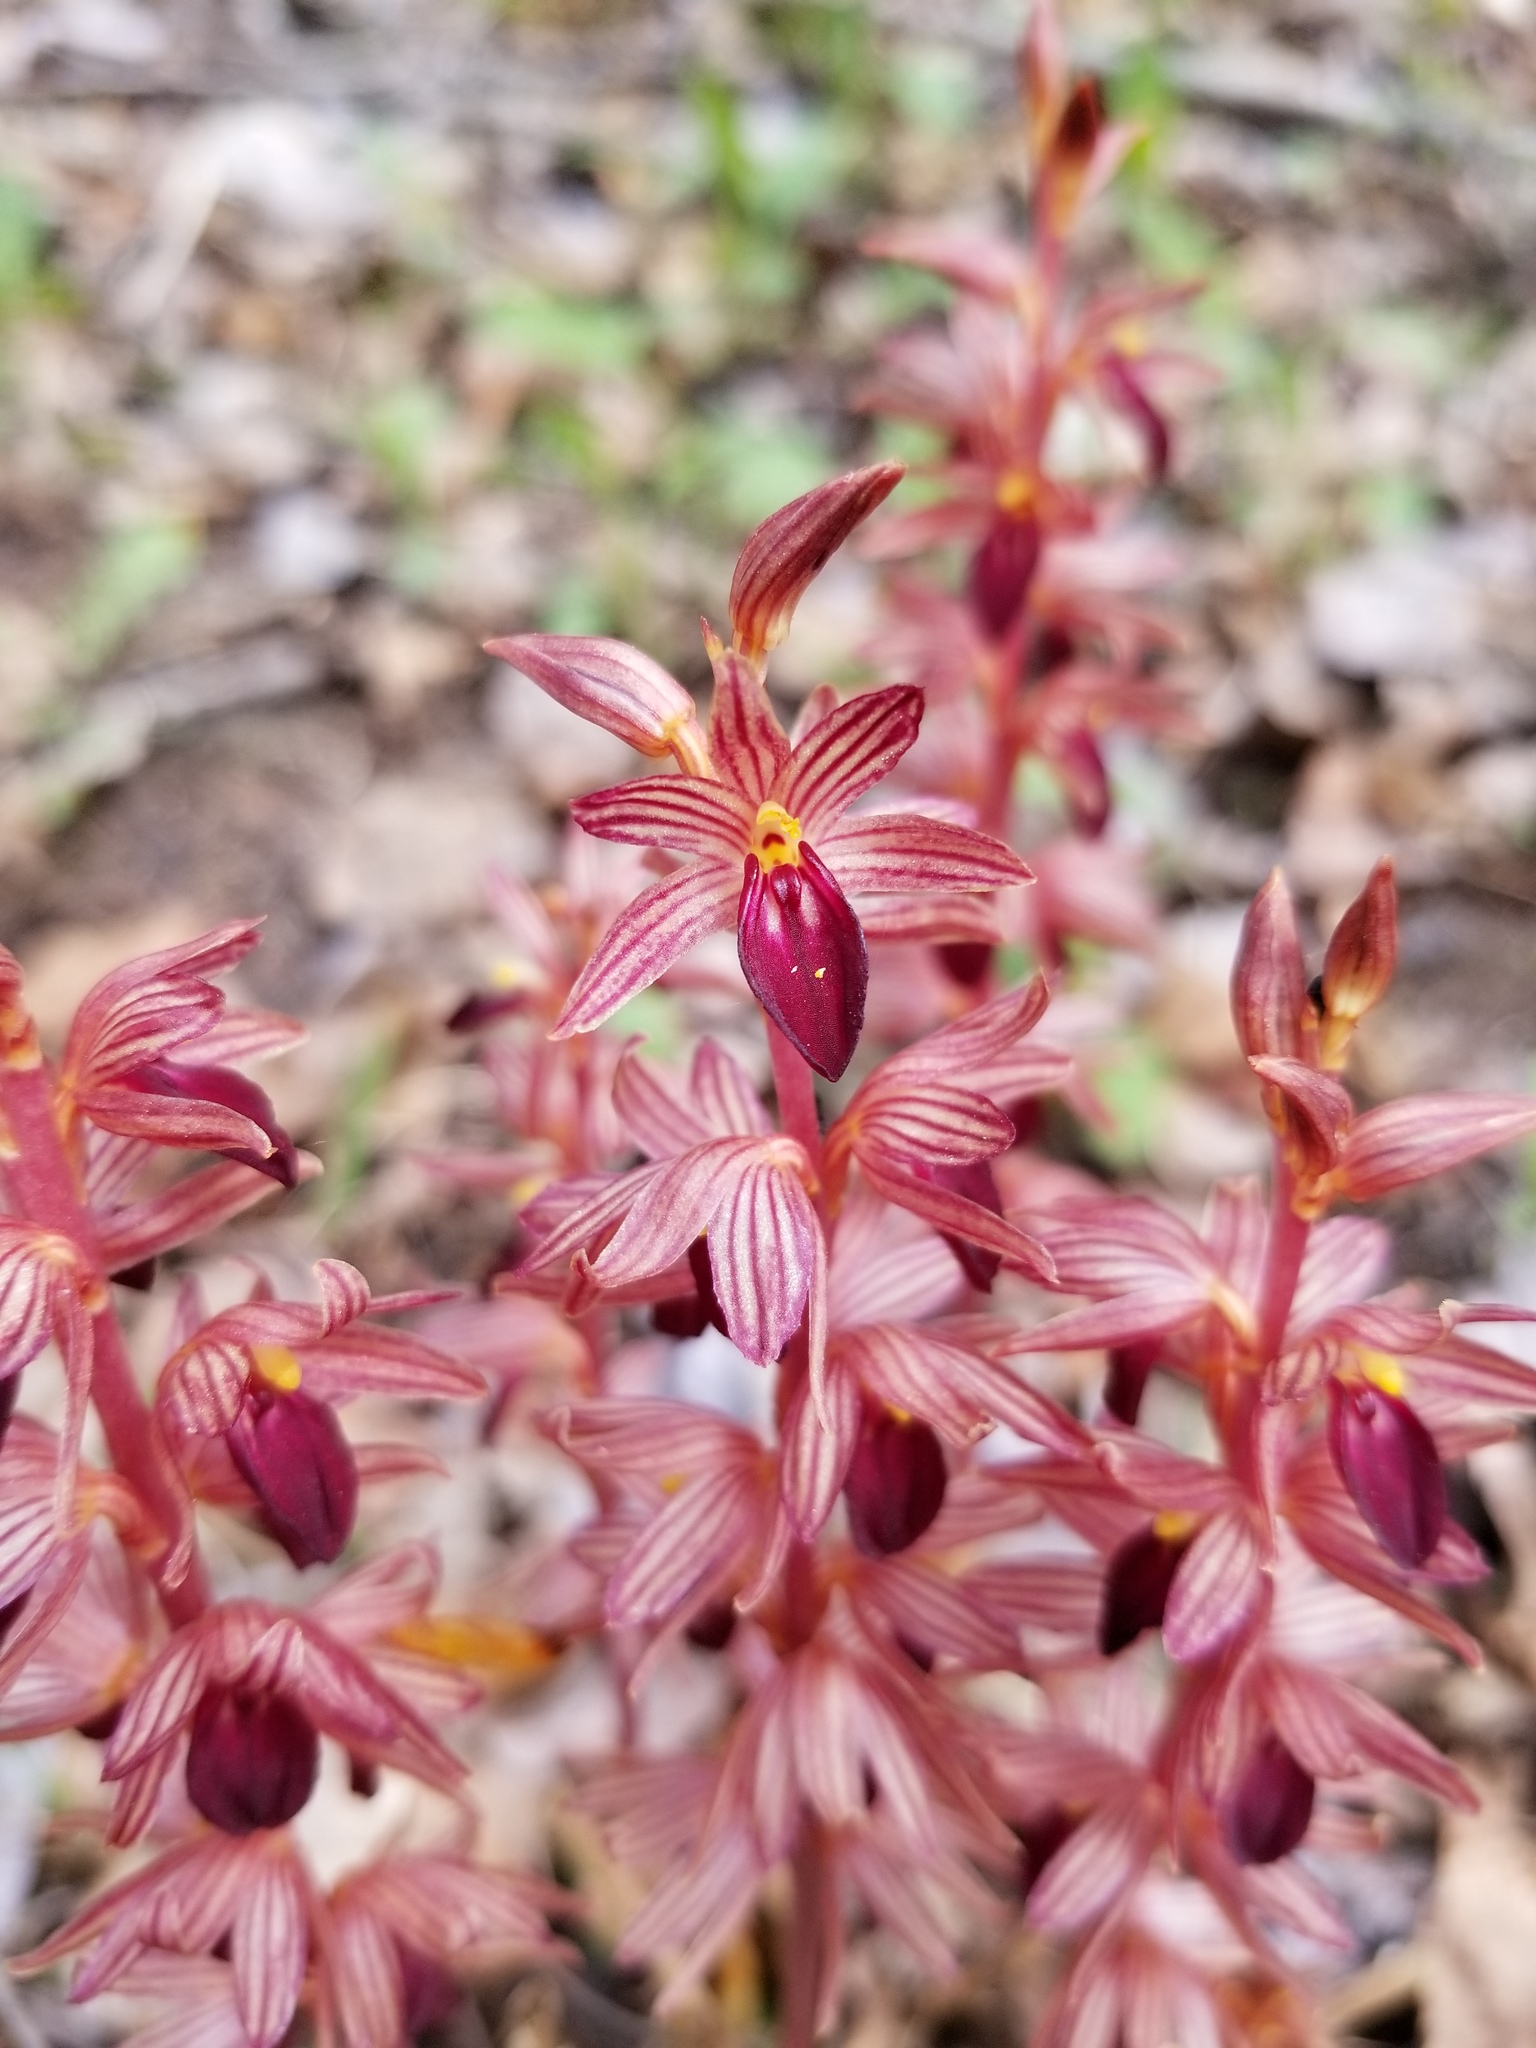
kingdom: Plantae
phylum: Tracheophyta
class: Liliopsida
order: Asparagales
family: Orchidaceae
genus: Corallorhiza
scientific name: Corallorhiza striata
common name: Hooded coralroot
